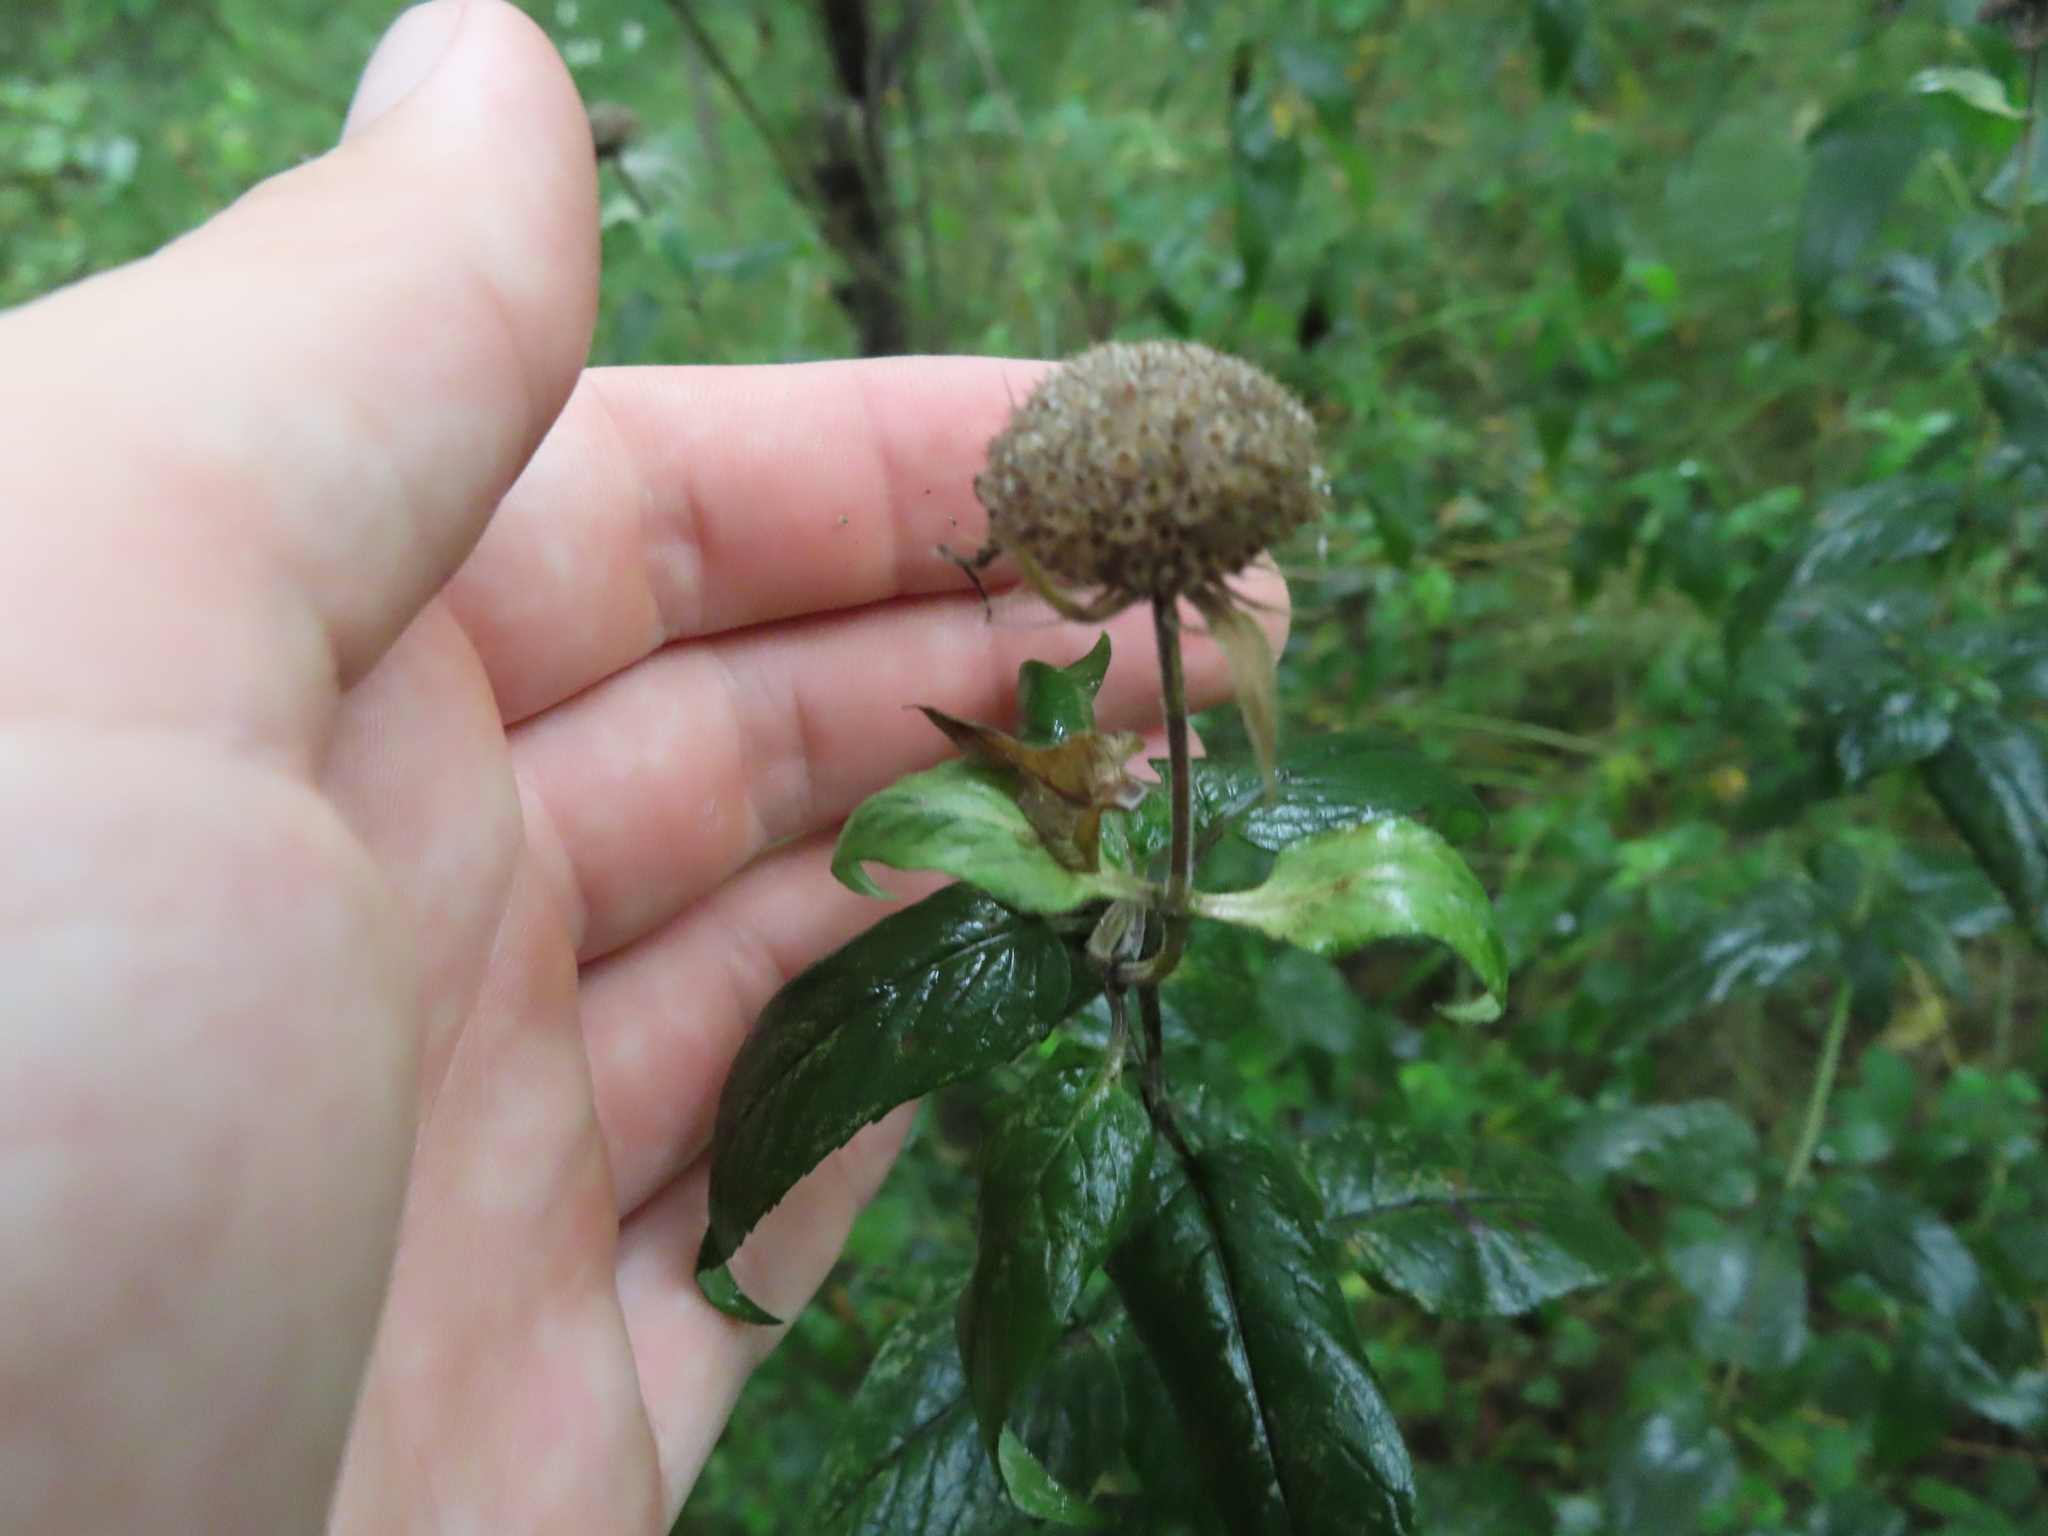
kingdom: Plantae
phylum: Tracheophyta
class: Magnoliopsida
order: Lamiales
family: Lamiaceae
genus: Monarda
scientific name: Monarda fistulosa
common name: Purple beebalm
